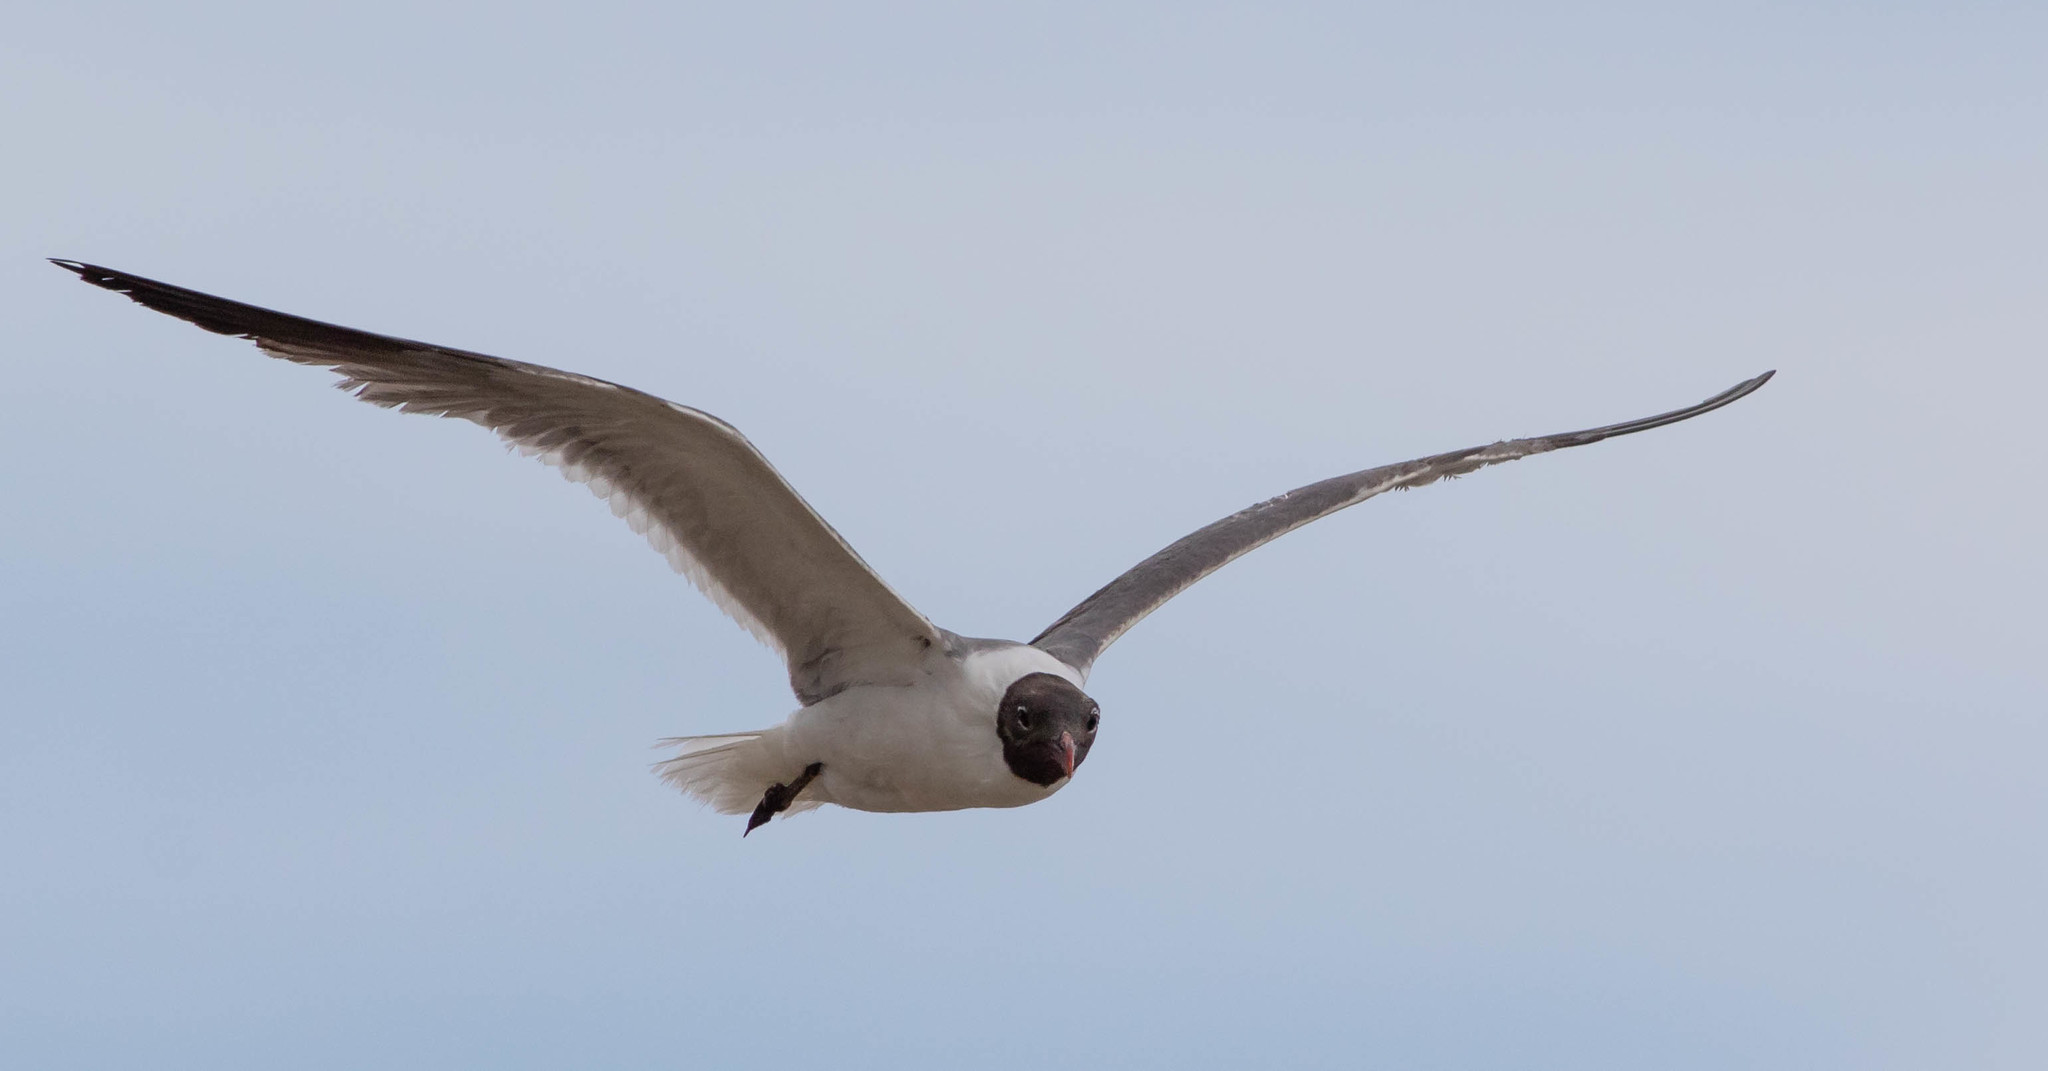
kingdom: Animalia
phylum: Chordata
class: Aves
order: Charadriiformes
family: Laridae
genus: Leucophaeus
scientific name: Leucophaeus atricilla
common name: Laughing gull
